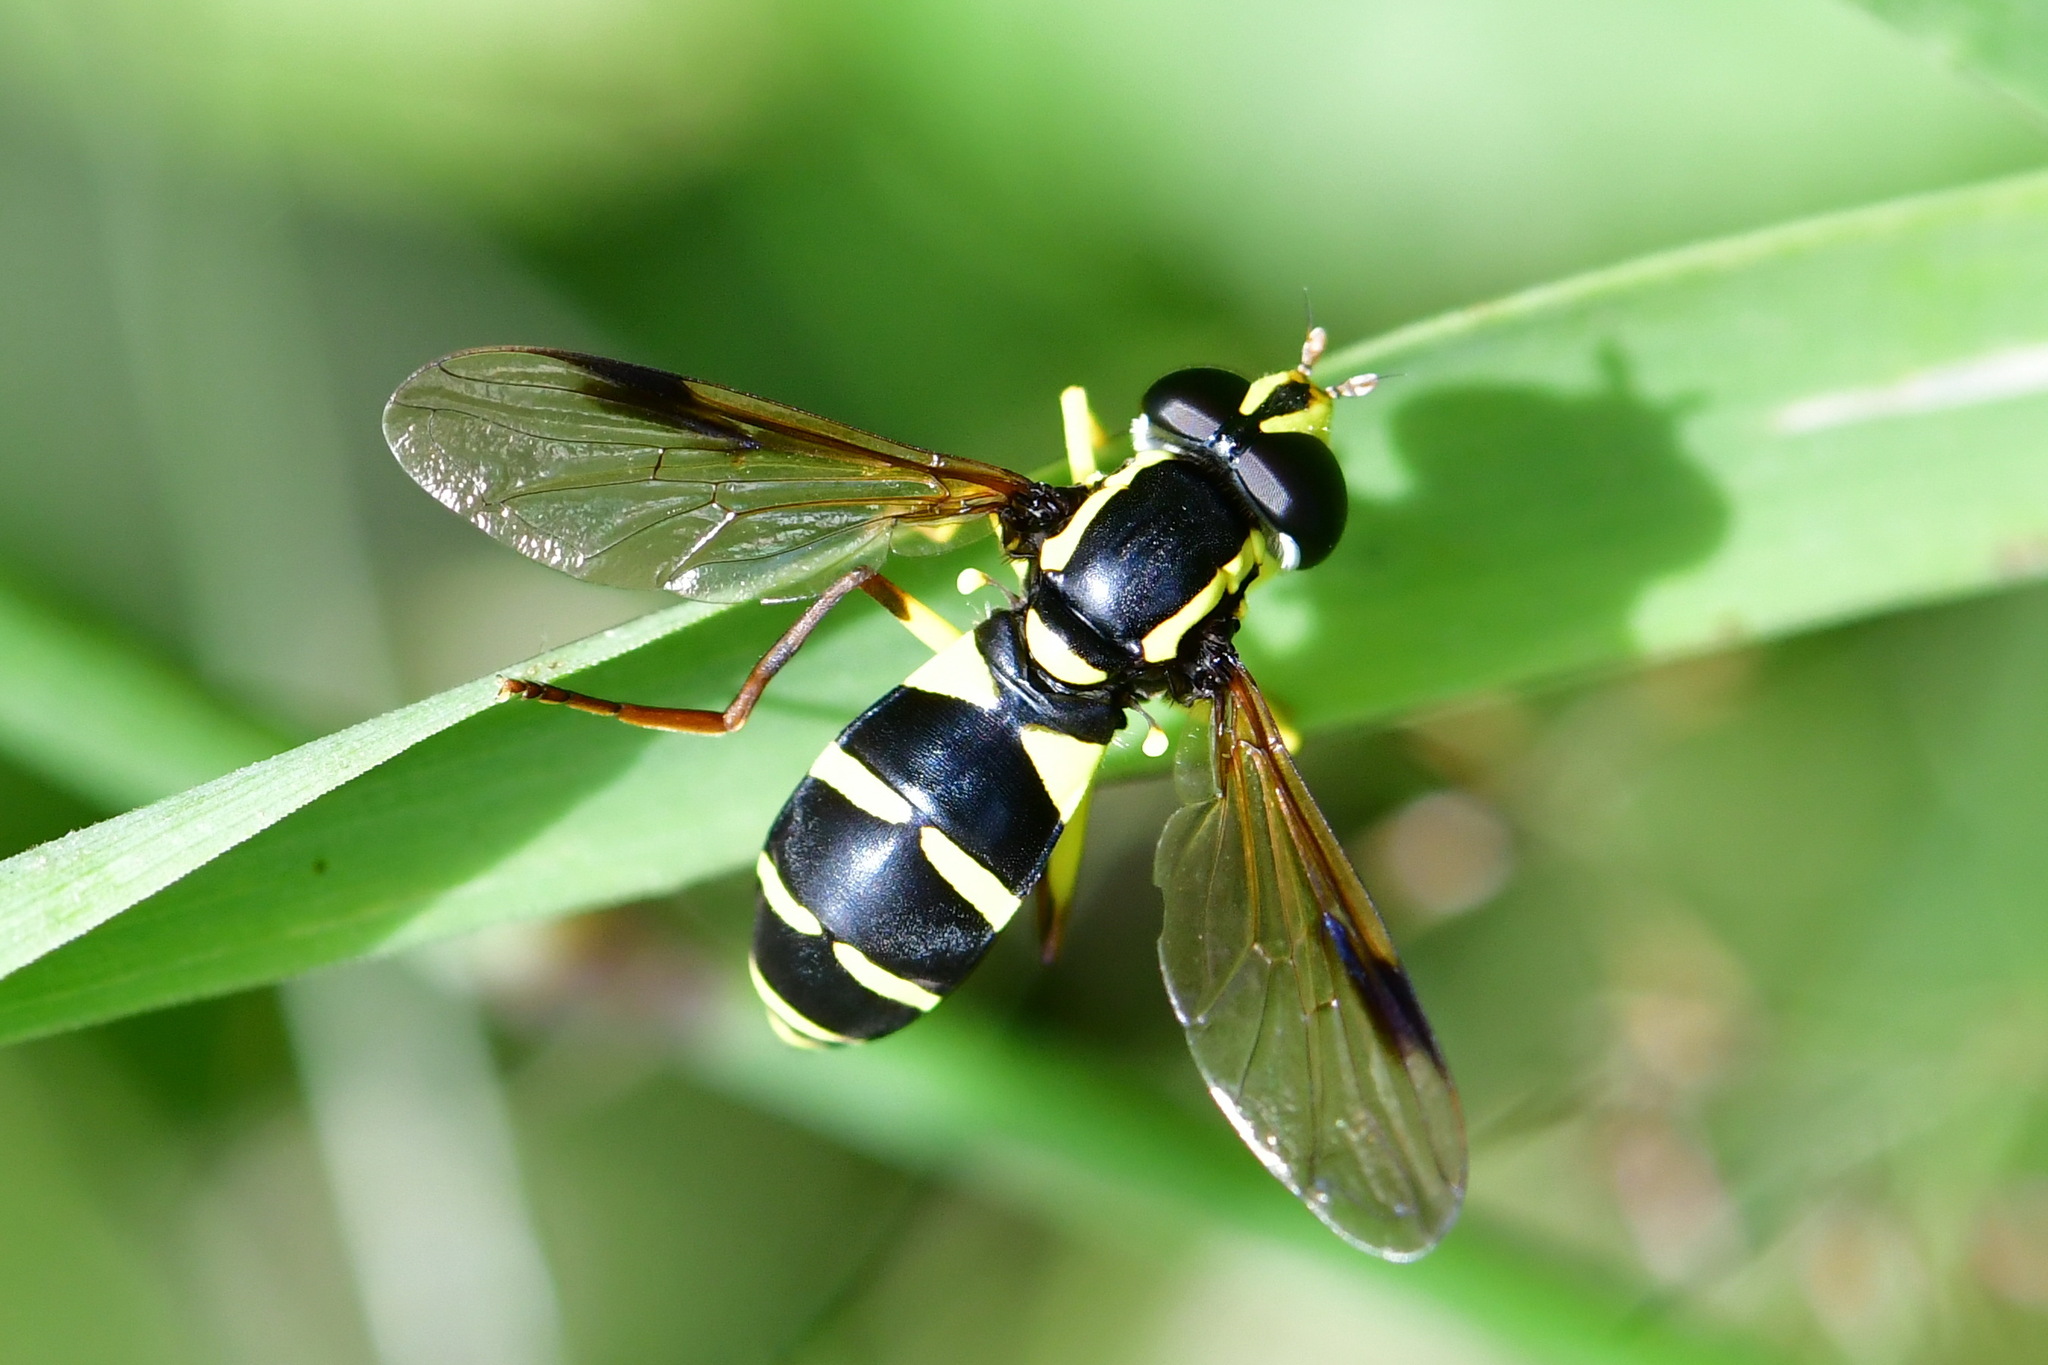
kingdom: Animalia
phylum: Arthropoda
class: Insecta
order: Diptera
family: Syrphidae
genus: Philhelius
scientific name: Philhelius pedissequum
